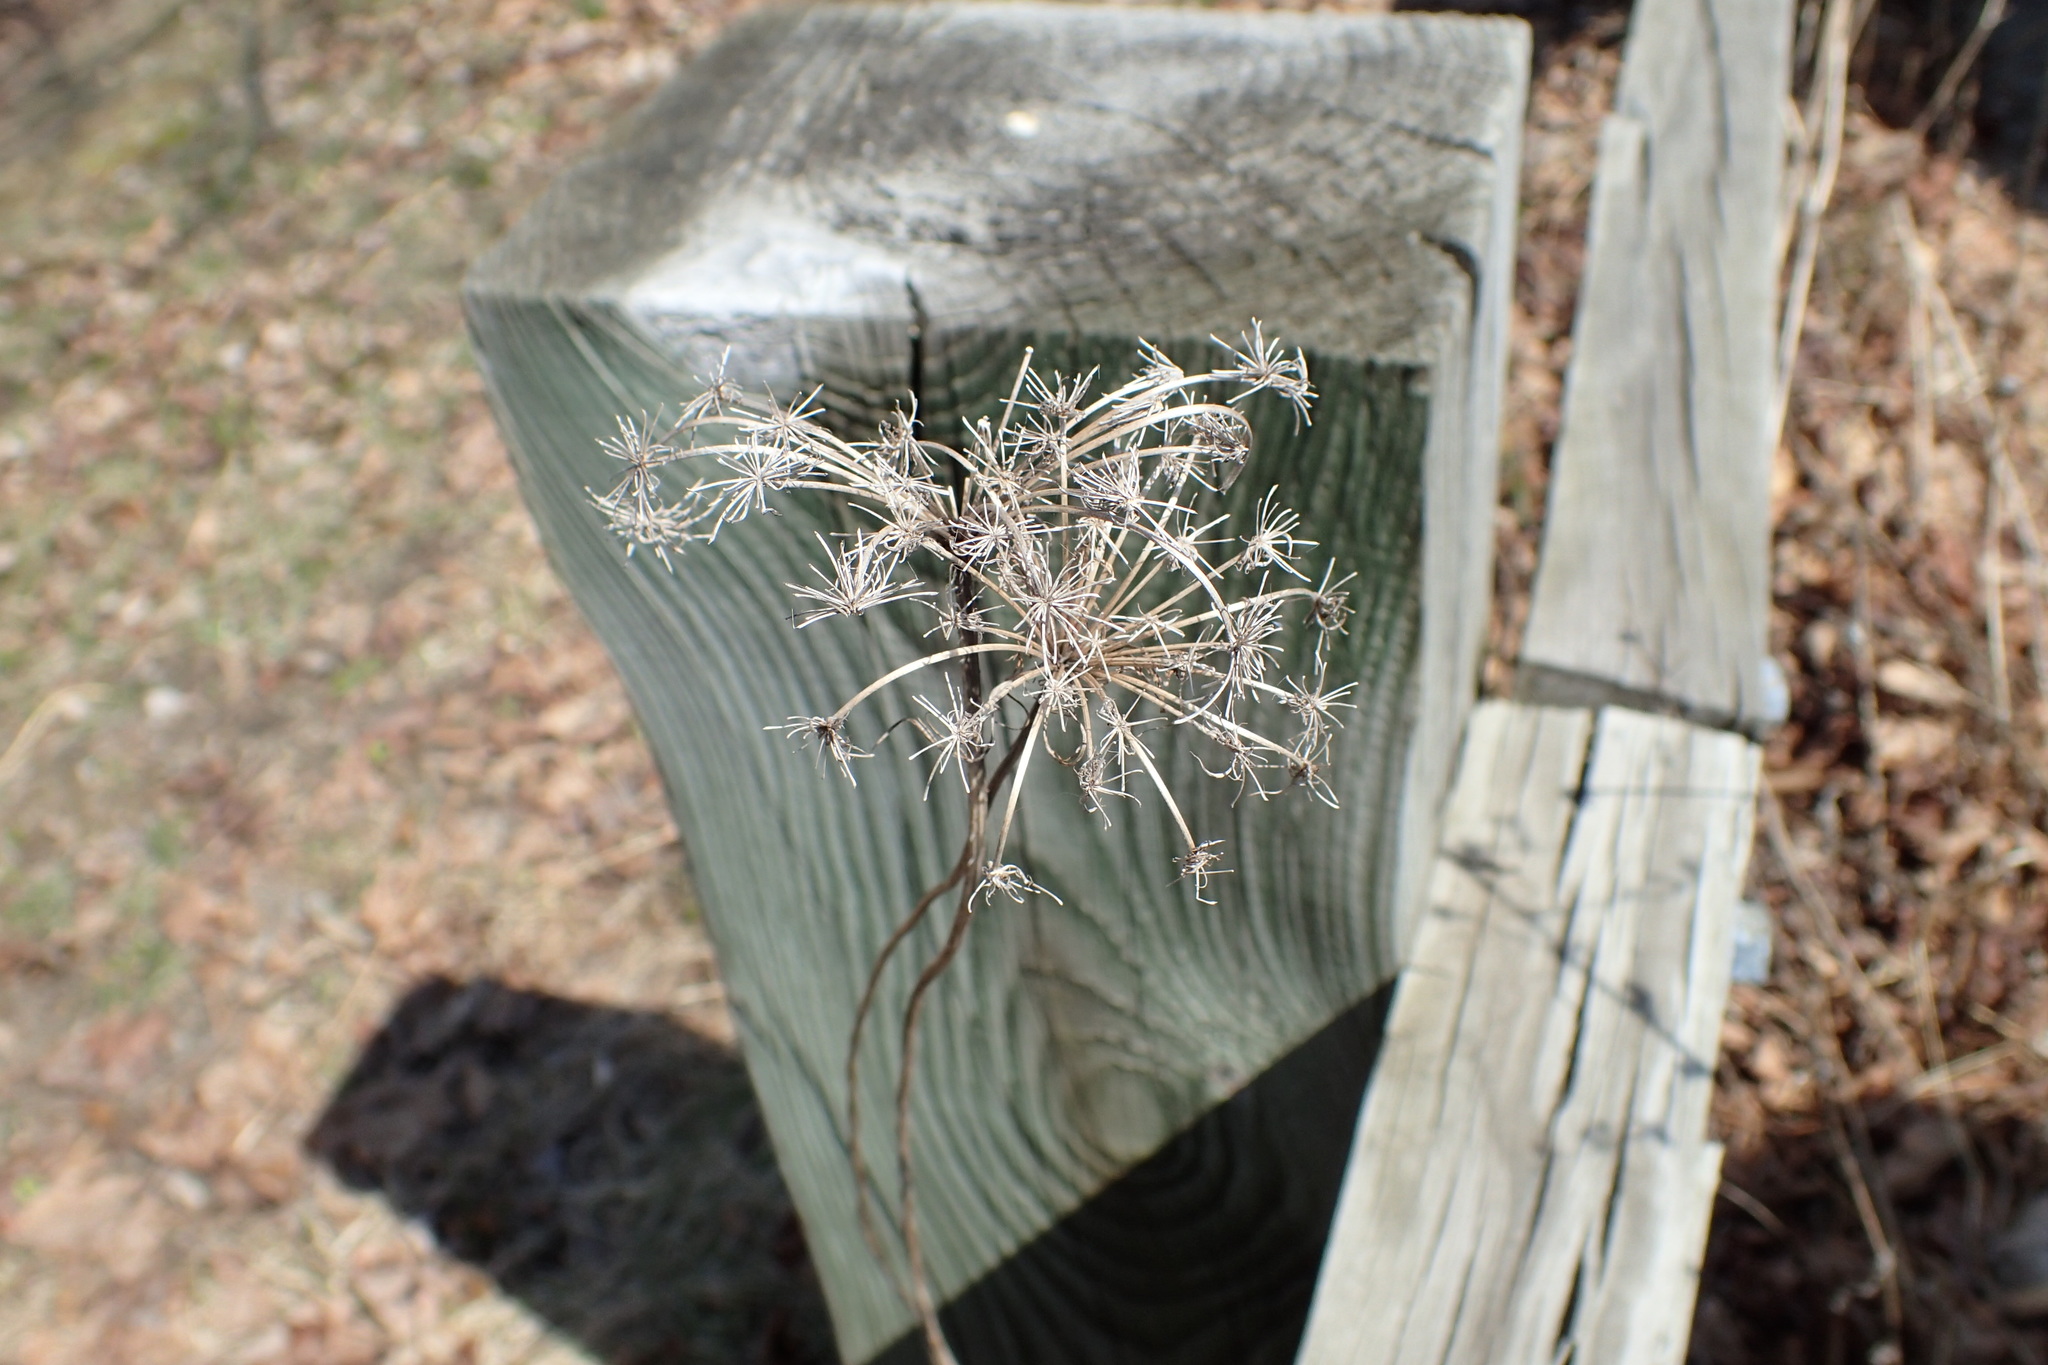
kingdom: Plantae
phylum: Tracheophyta
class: Magnoliopsida
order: Apiales
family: Apiaceae
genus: Daucus
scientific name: Daucus carota
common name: Wild carrot
